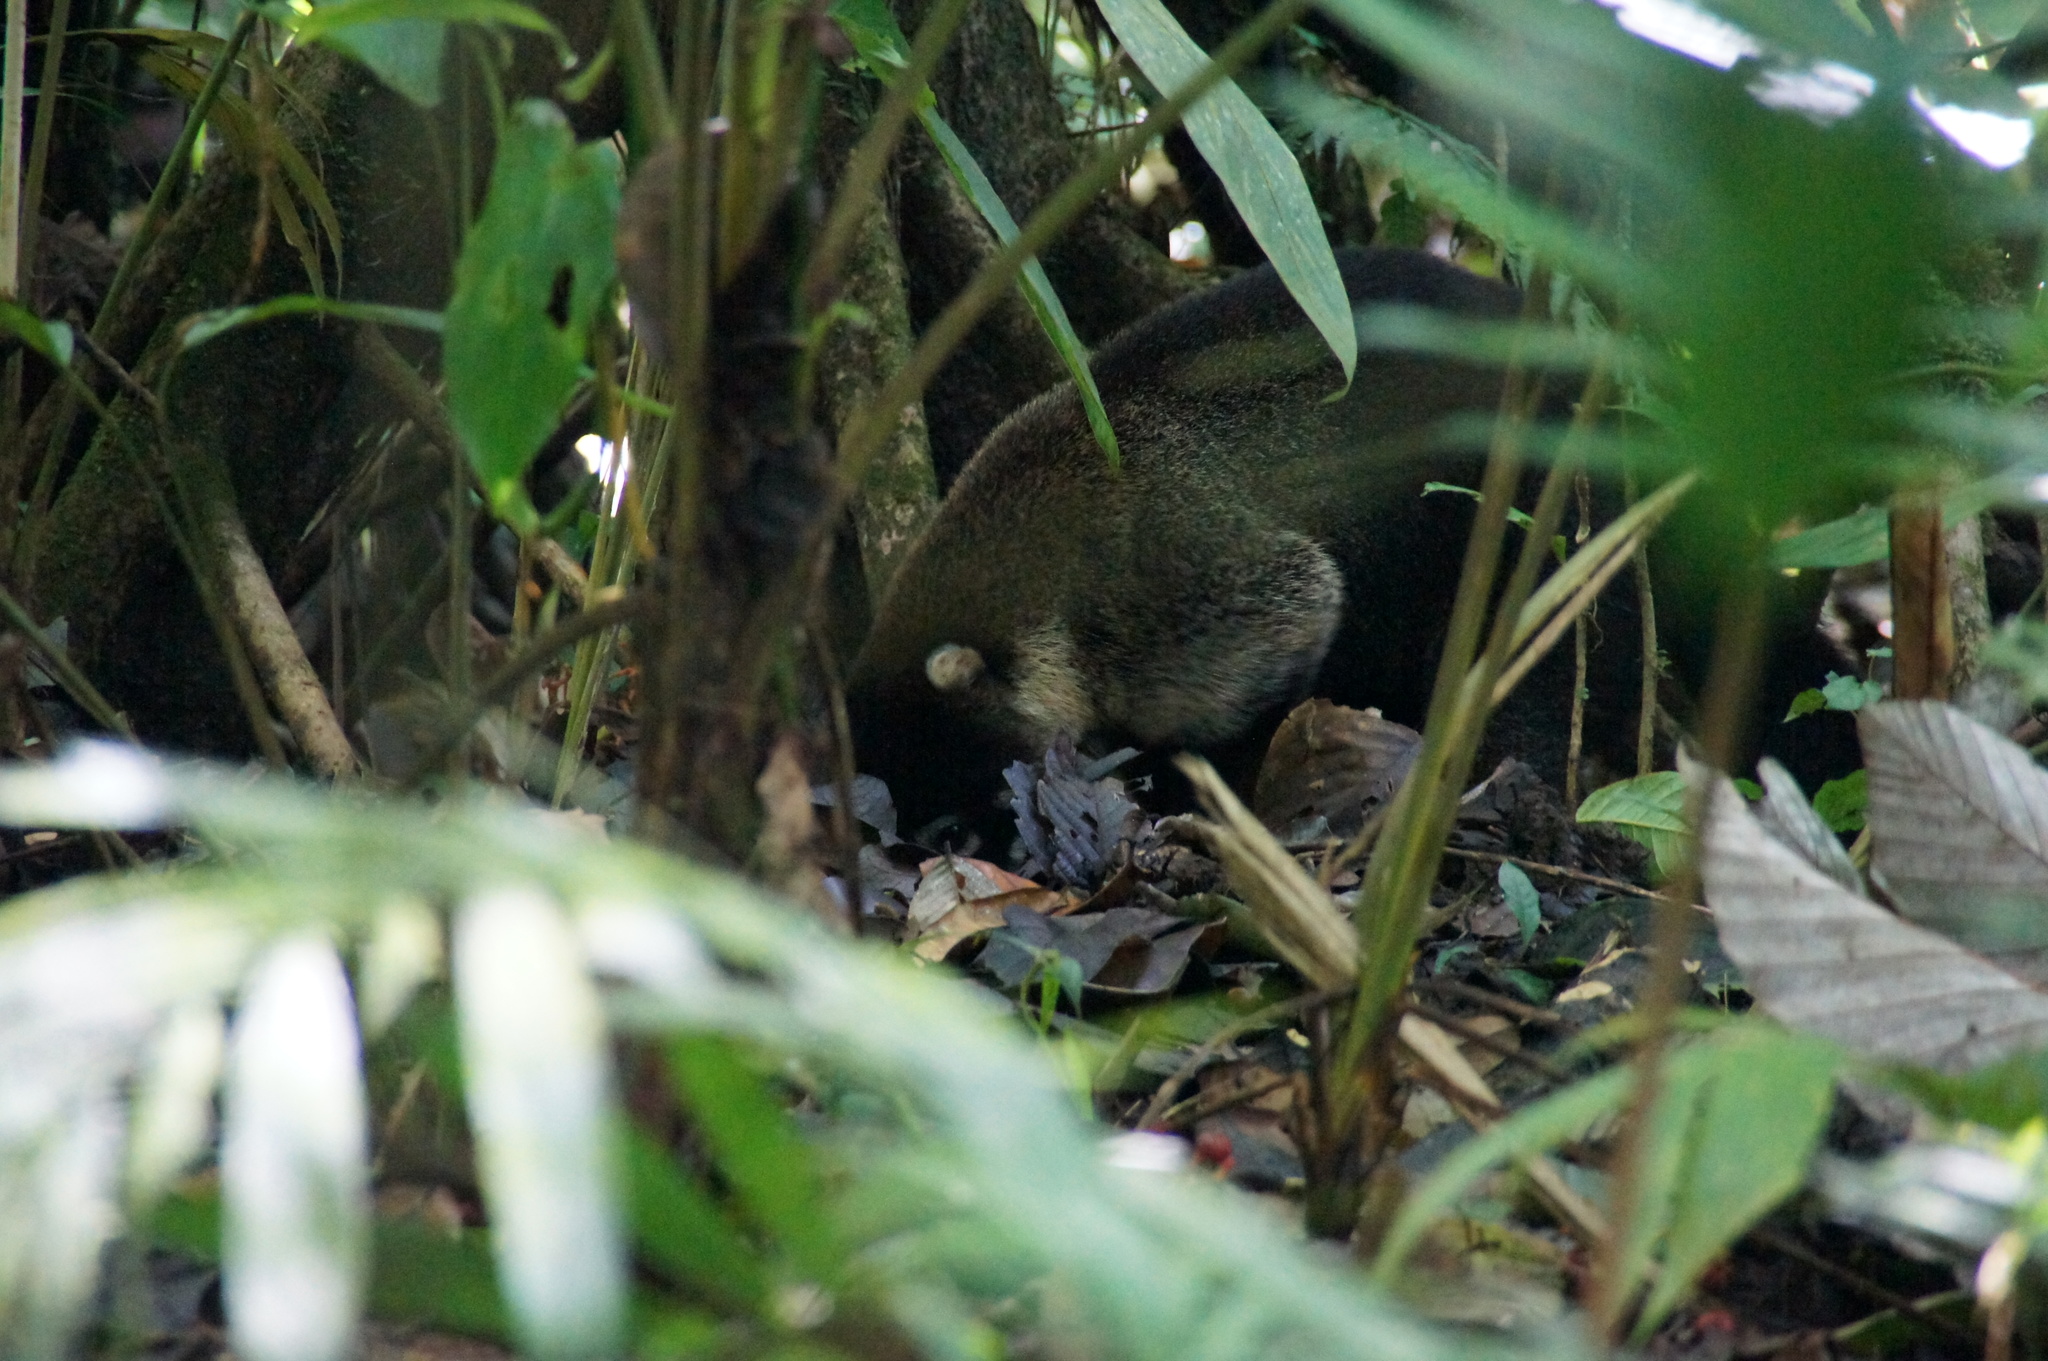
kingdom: Animalia
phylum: Chordata
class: Mammalia
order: Carnivora
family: Procyonidae
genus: Nasua
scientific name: Nasua narica
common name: White-nosed coati
